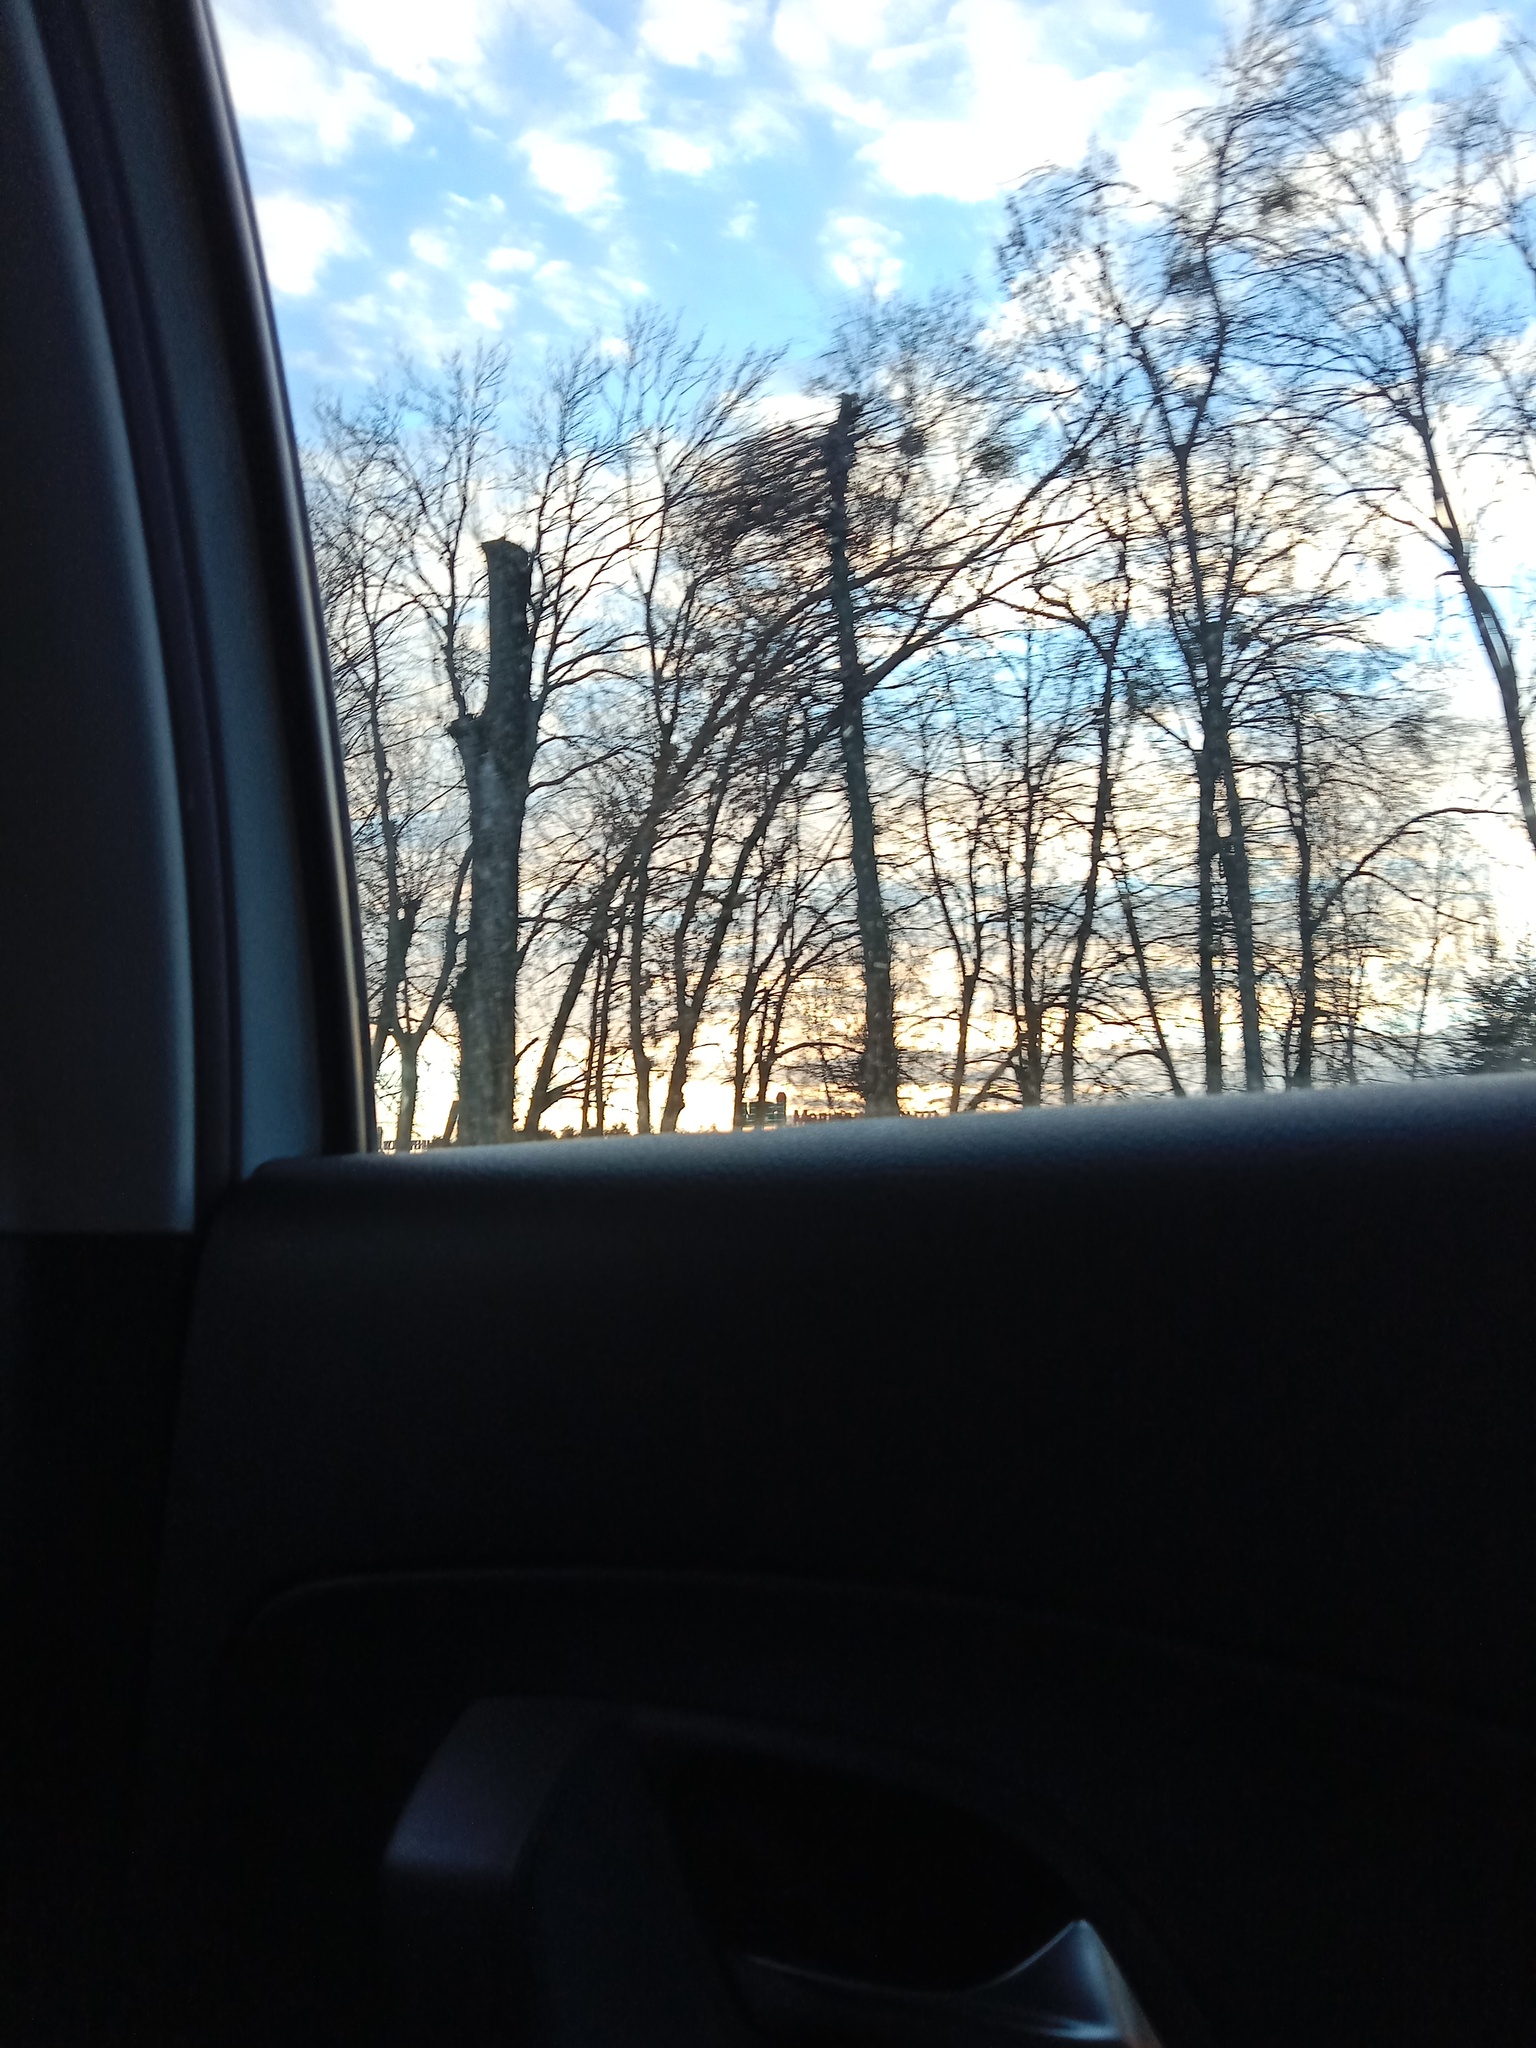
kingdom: Plantae
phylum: Tracheophyta
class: Magnoliopsida
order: Santalales
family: Viscaceae
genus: Viscum
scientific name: Viscum album
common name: Mistletoe
